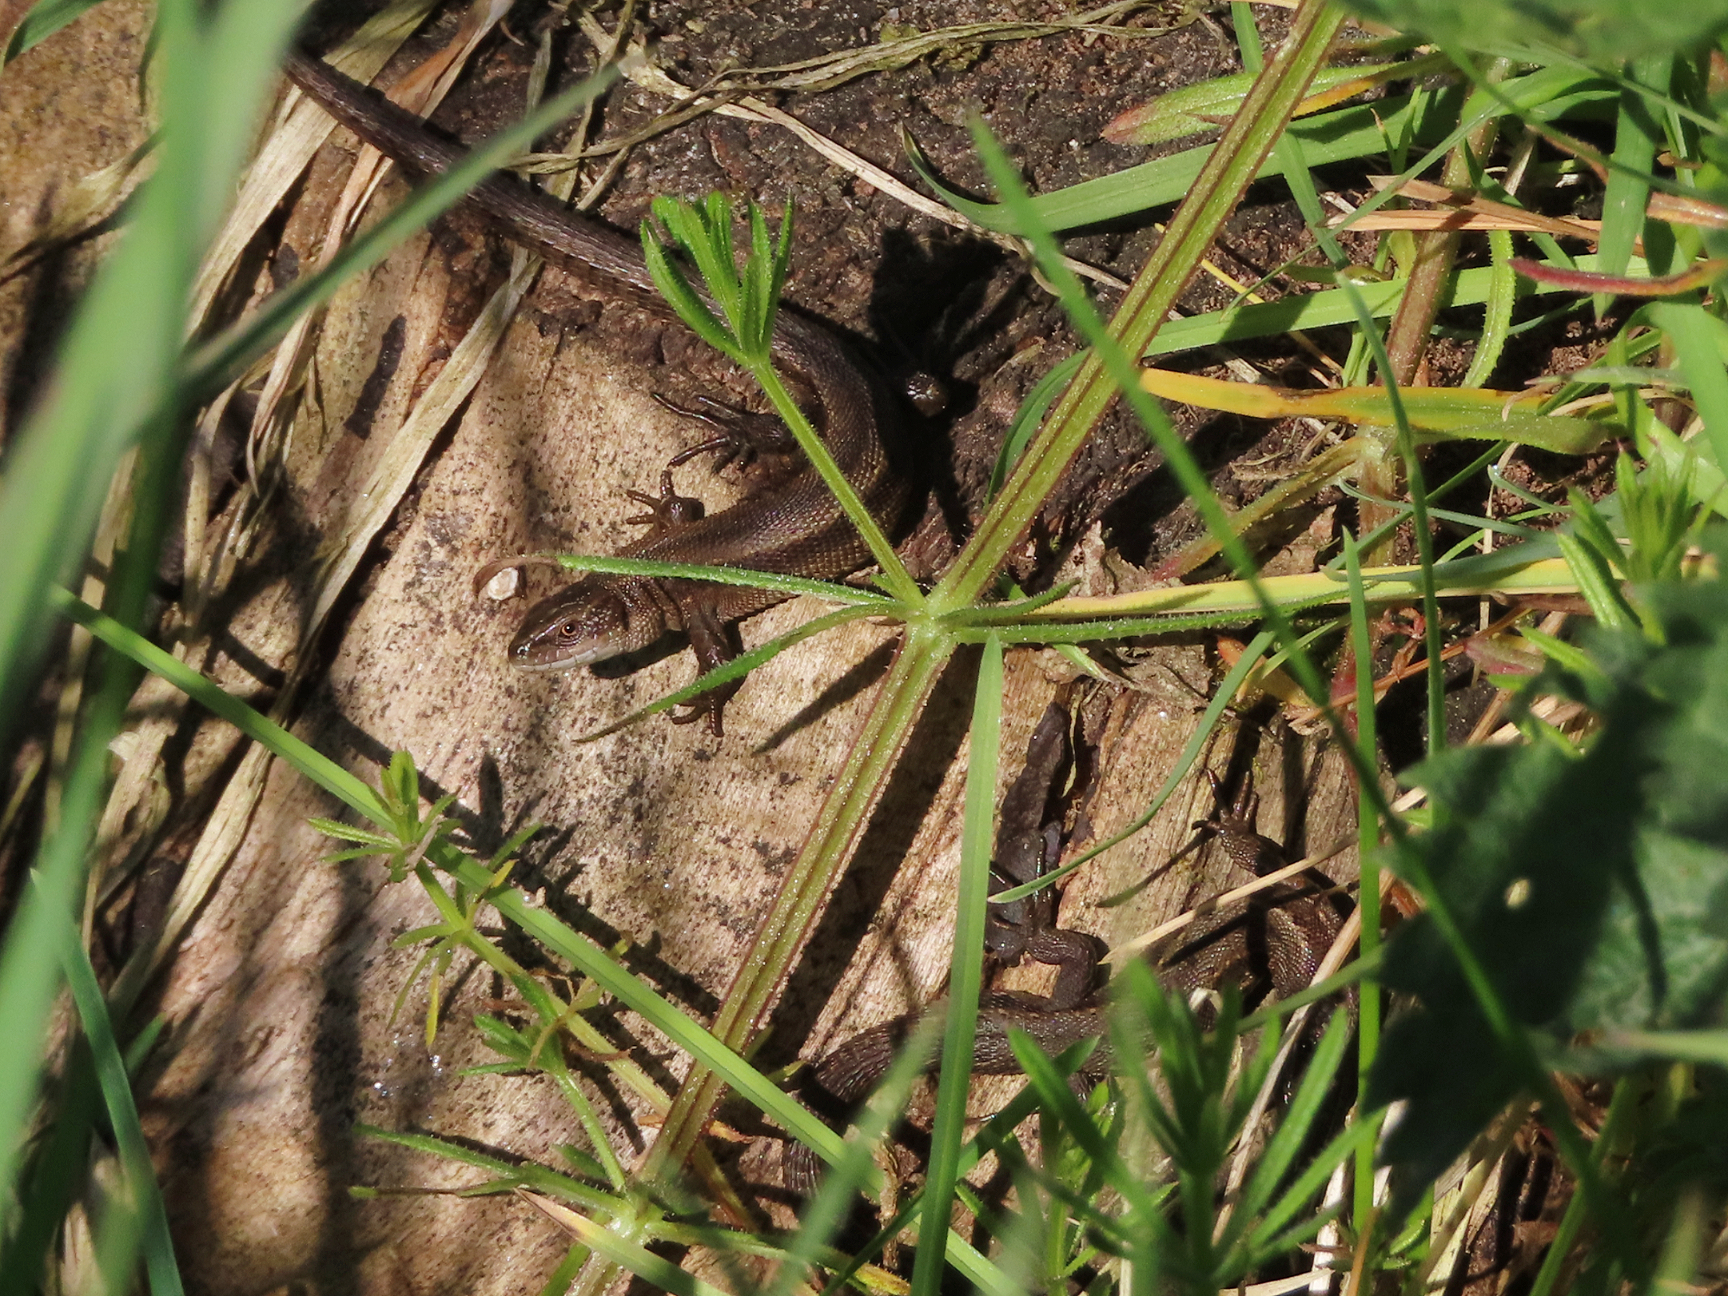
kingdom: Animalia
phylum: Chordata
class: Squamata
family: Lacertidae
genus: Zootoca
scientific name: Zootoca vivipara
